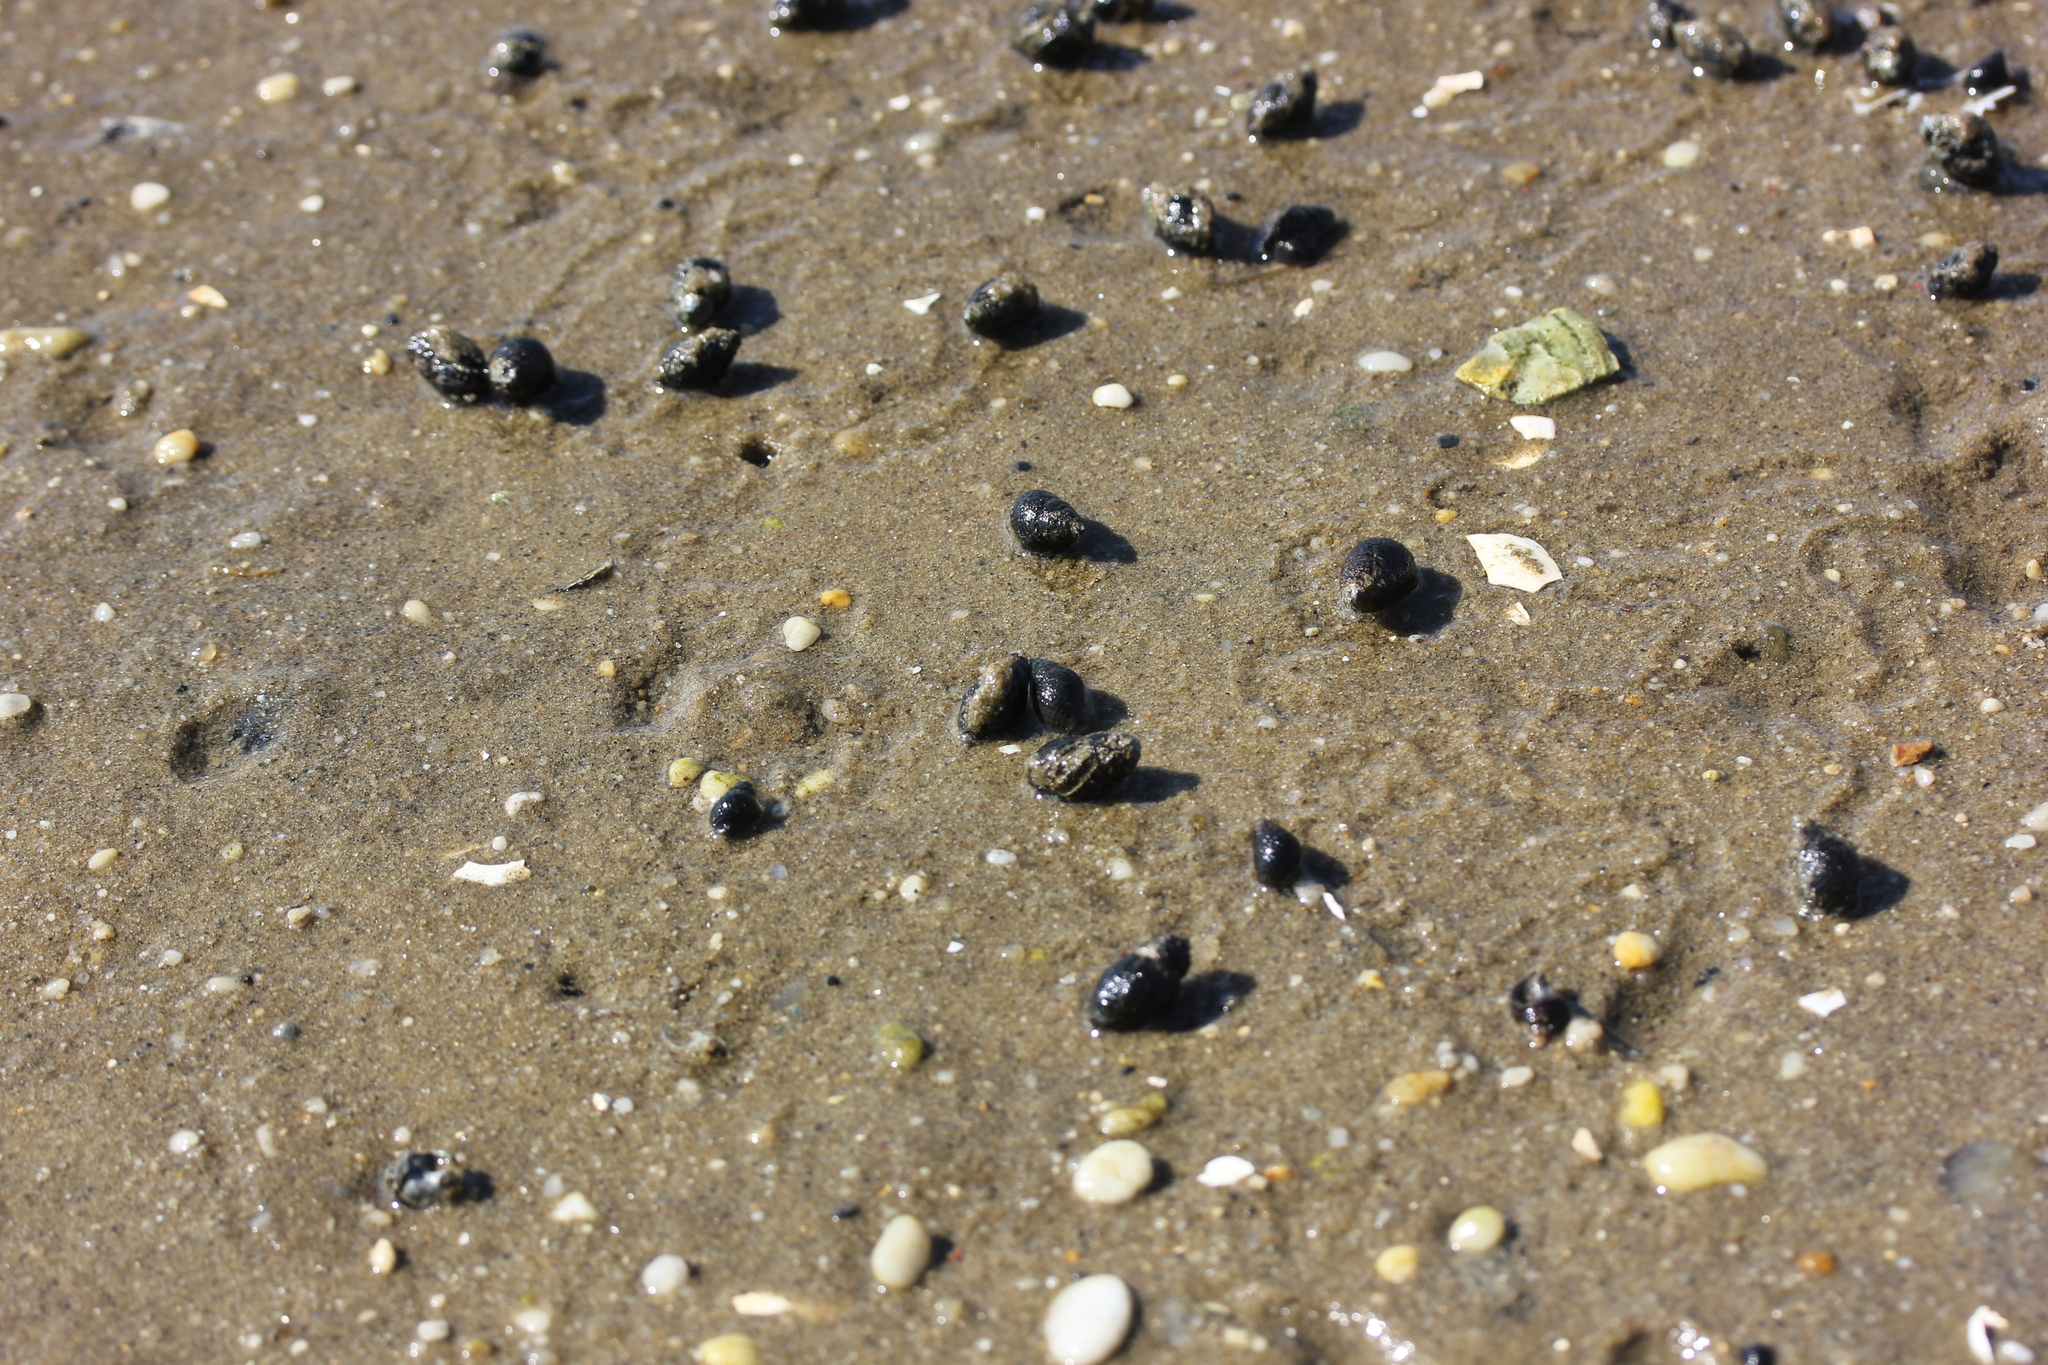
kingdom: Animalia
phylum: Mollusca
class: Gastropoda
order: Neogastropoda
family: Nassariidae
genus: Ilyanassa
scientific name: Ilyanassa obsoleta
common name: Eastern mudsnail
